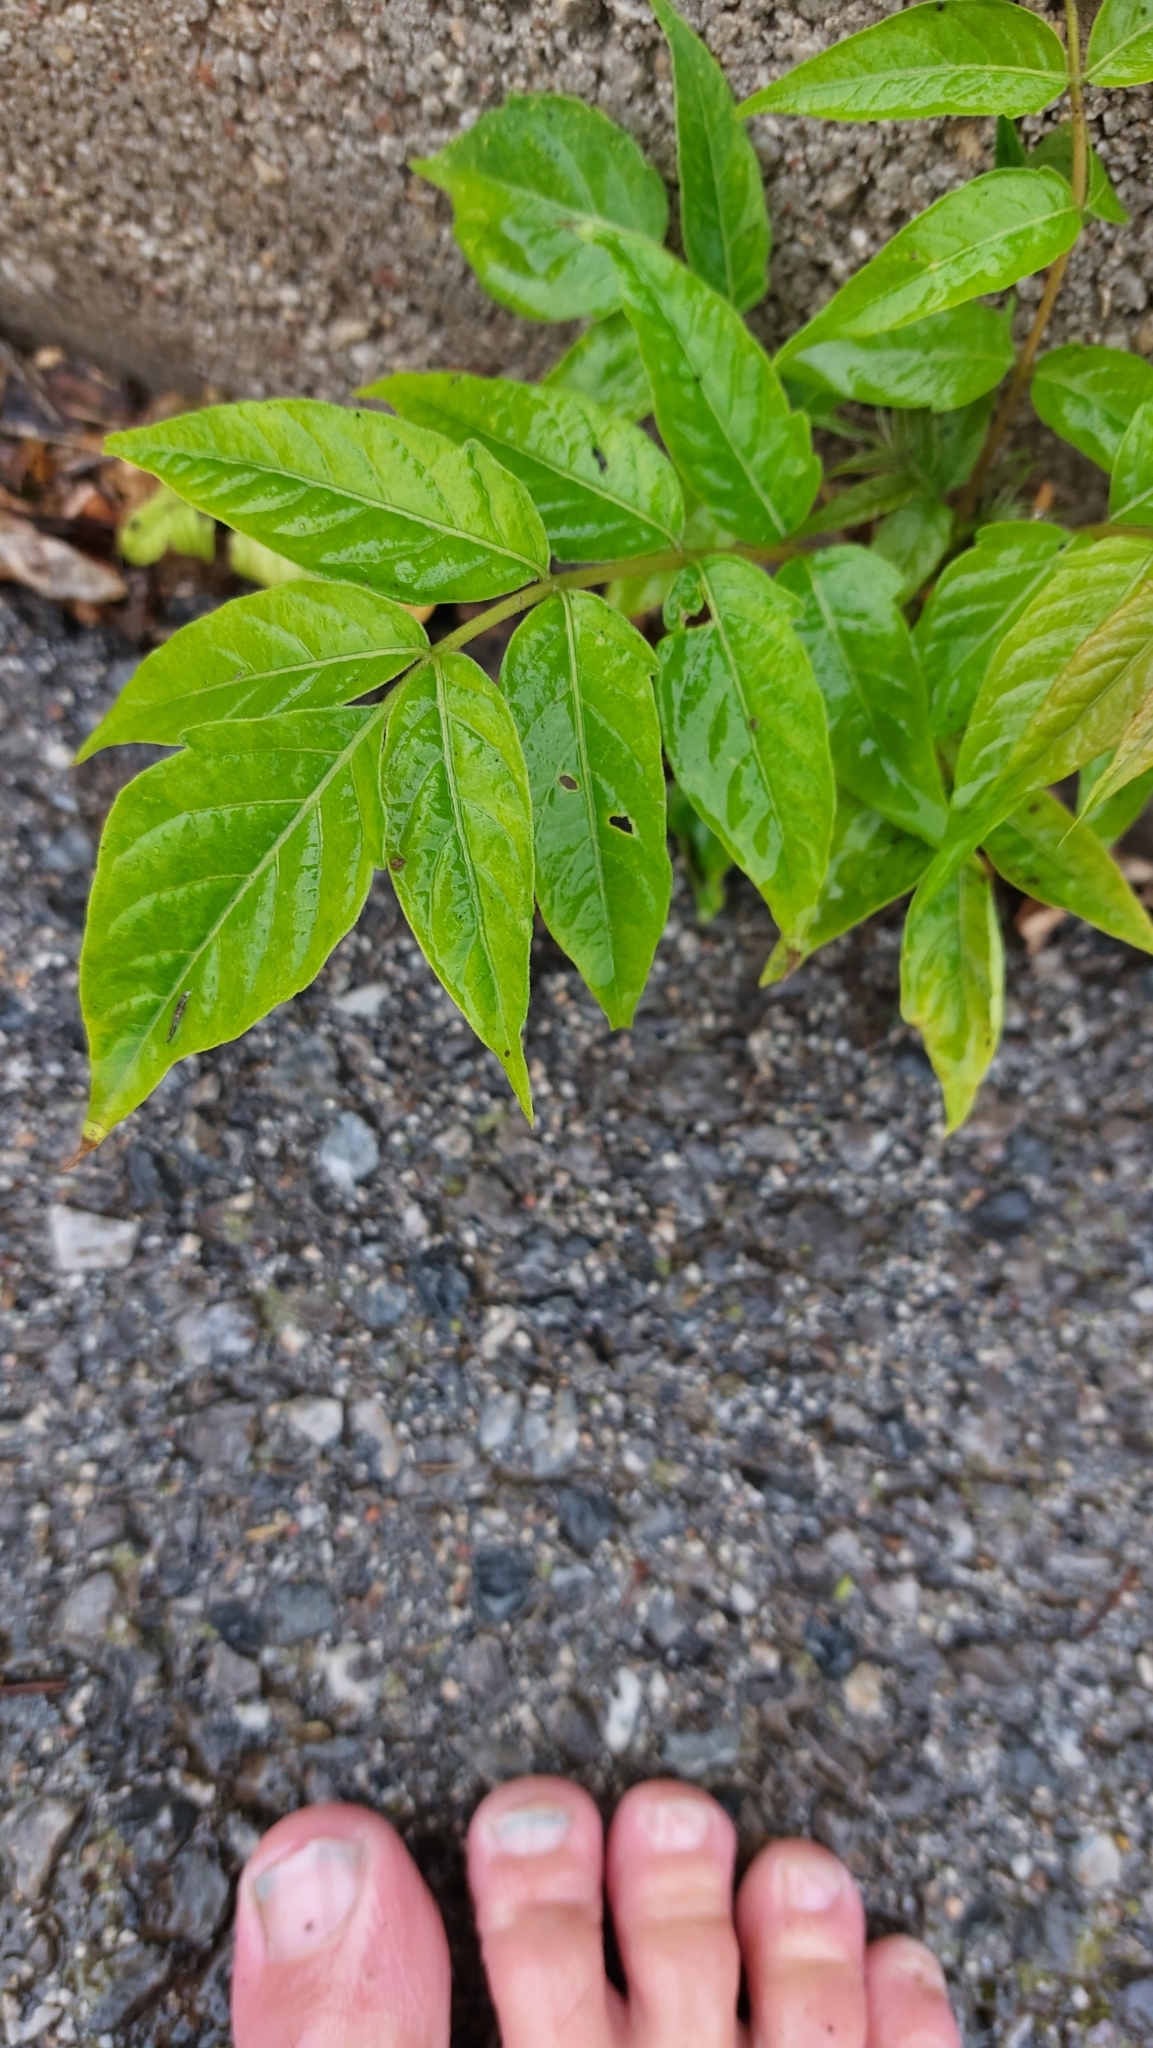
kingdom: Plantae
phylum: Tracheophyta
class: Magnoliopsida
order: Sapindales
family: Simaroubaceae
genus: Ailanthus
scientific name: Ailanthus altissima
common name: Tree-of-heaven
